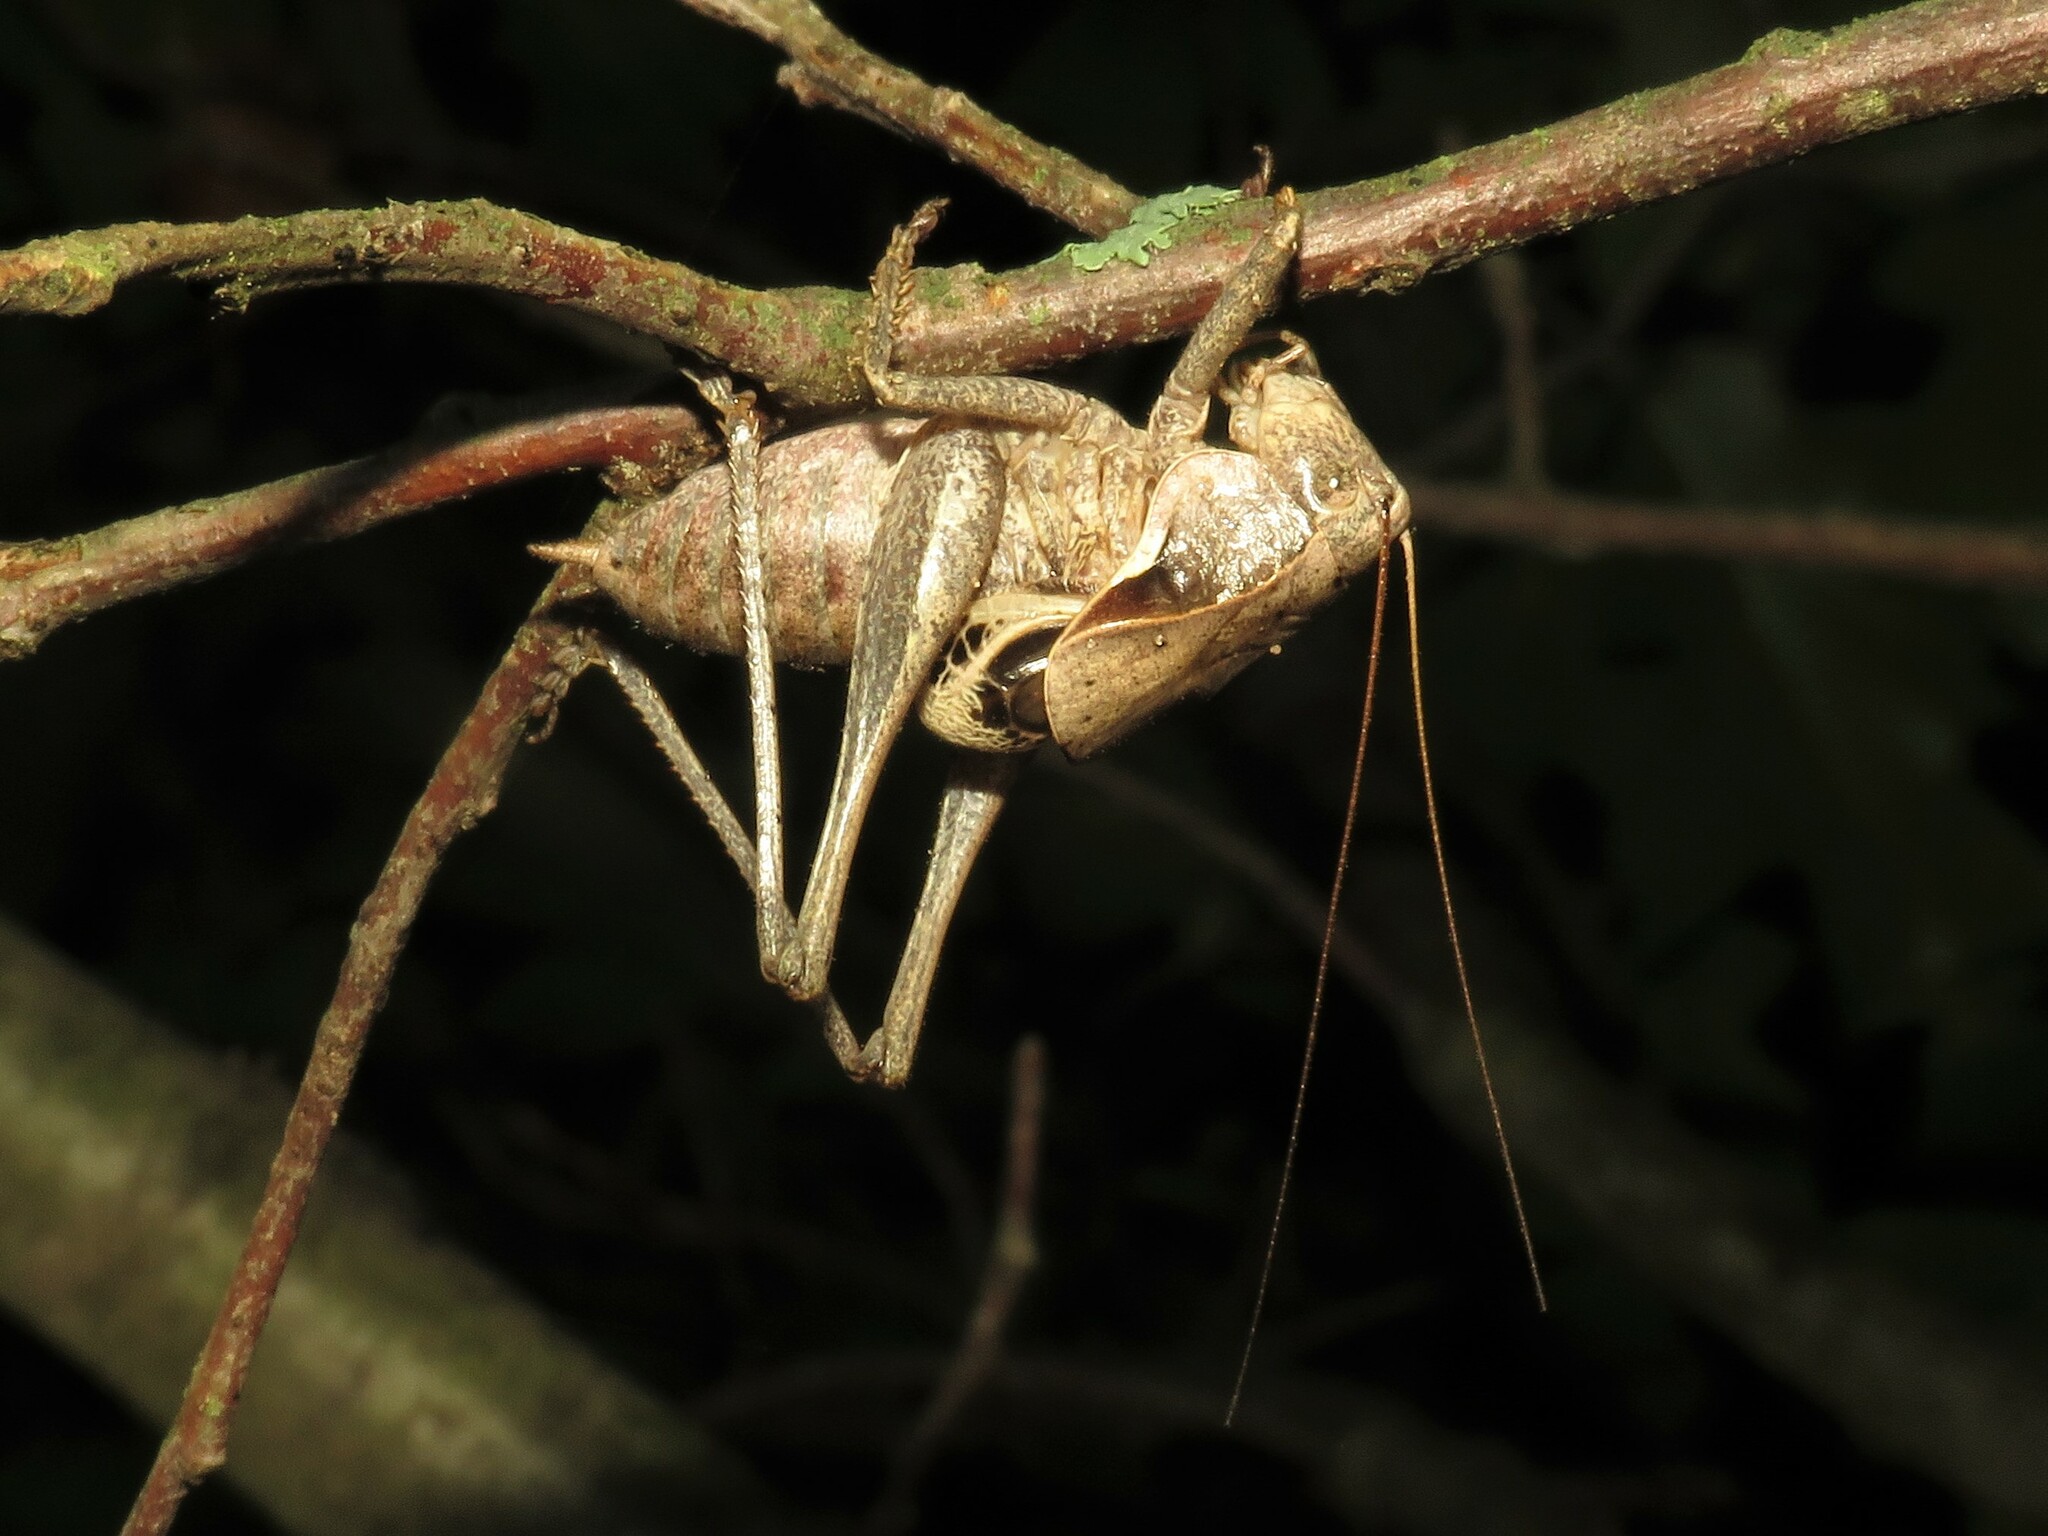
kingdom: Animalia
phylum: Arthropoda
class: Insecta
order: Orthoptera
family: Tettigoniidae
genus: Atlanticus
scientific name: Atlanticus davisi
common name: Davis's shield-bearer
